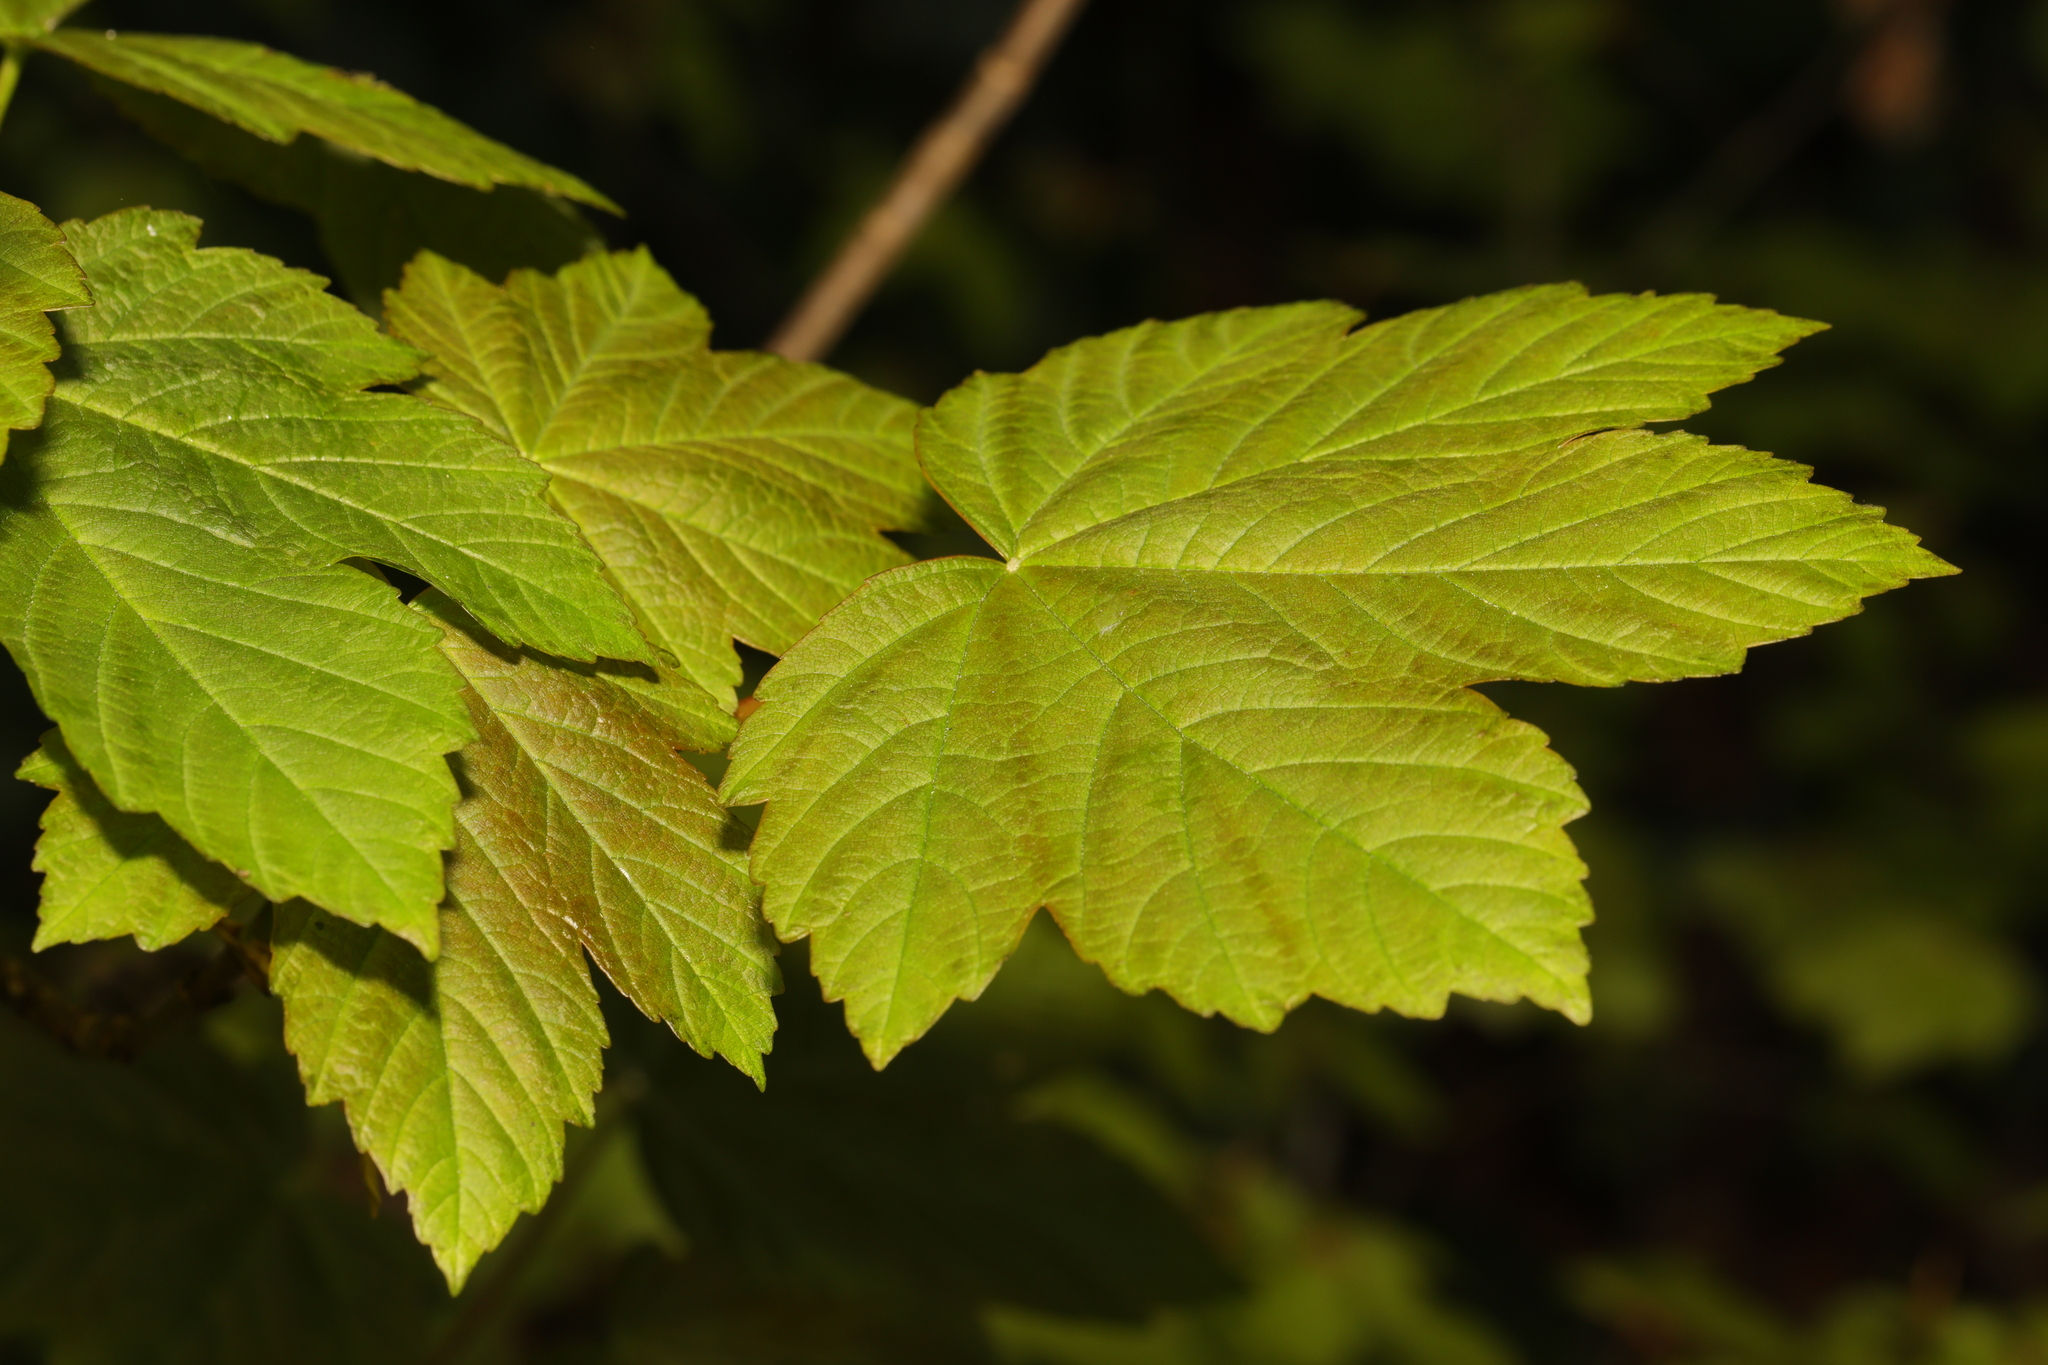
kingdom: Plantae
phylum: Tracheophyta
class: Magnoliopsida
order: Sapindales
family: Sapindaceae
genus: Acer
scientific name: Acer pseudoplatanus
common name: Sycamore
